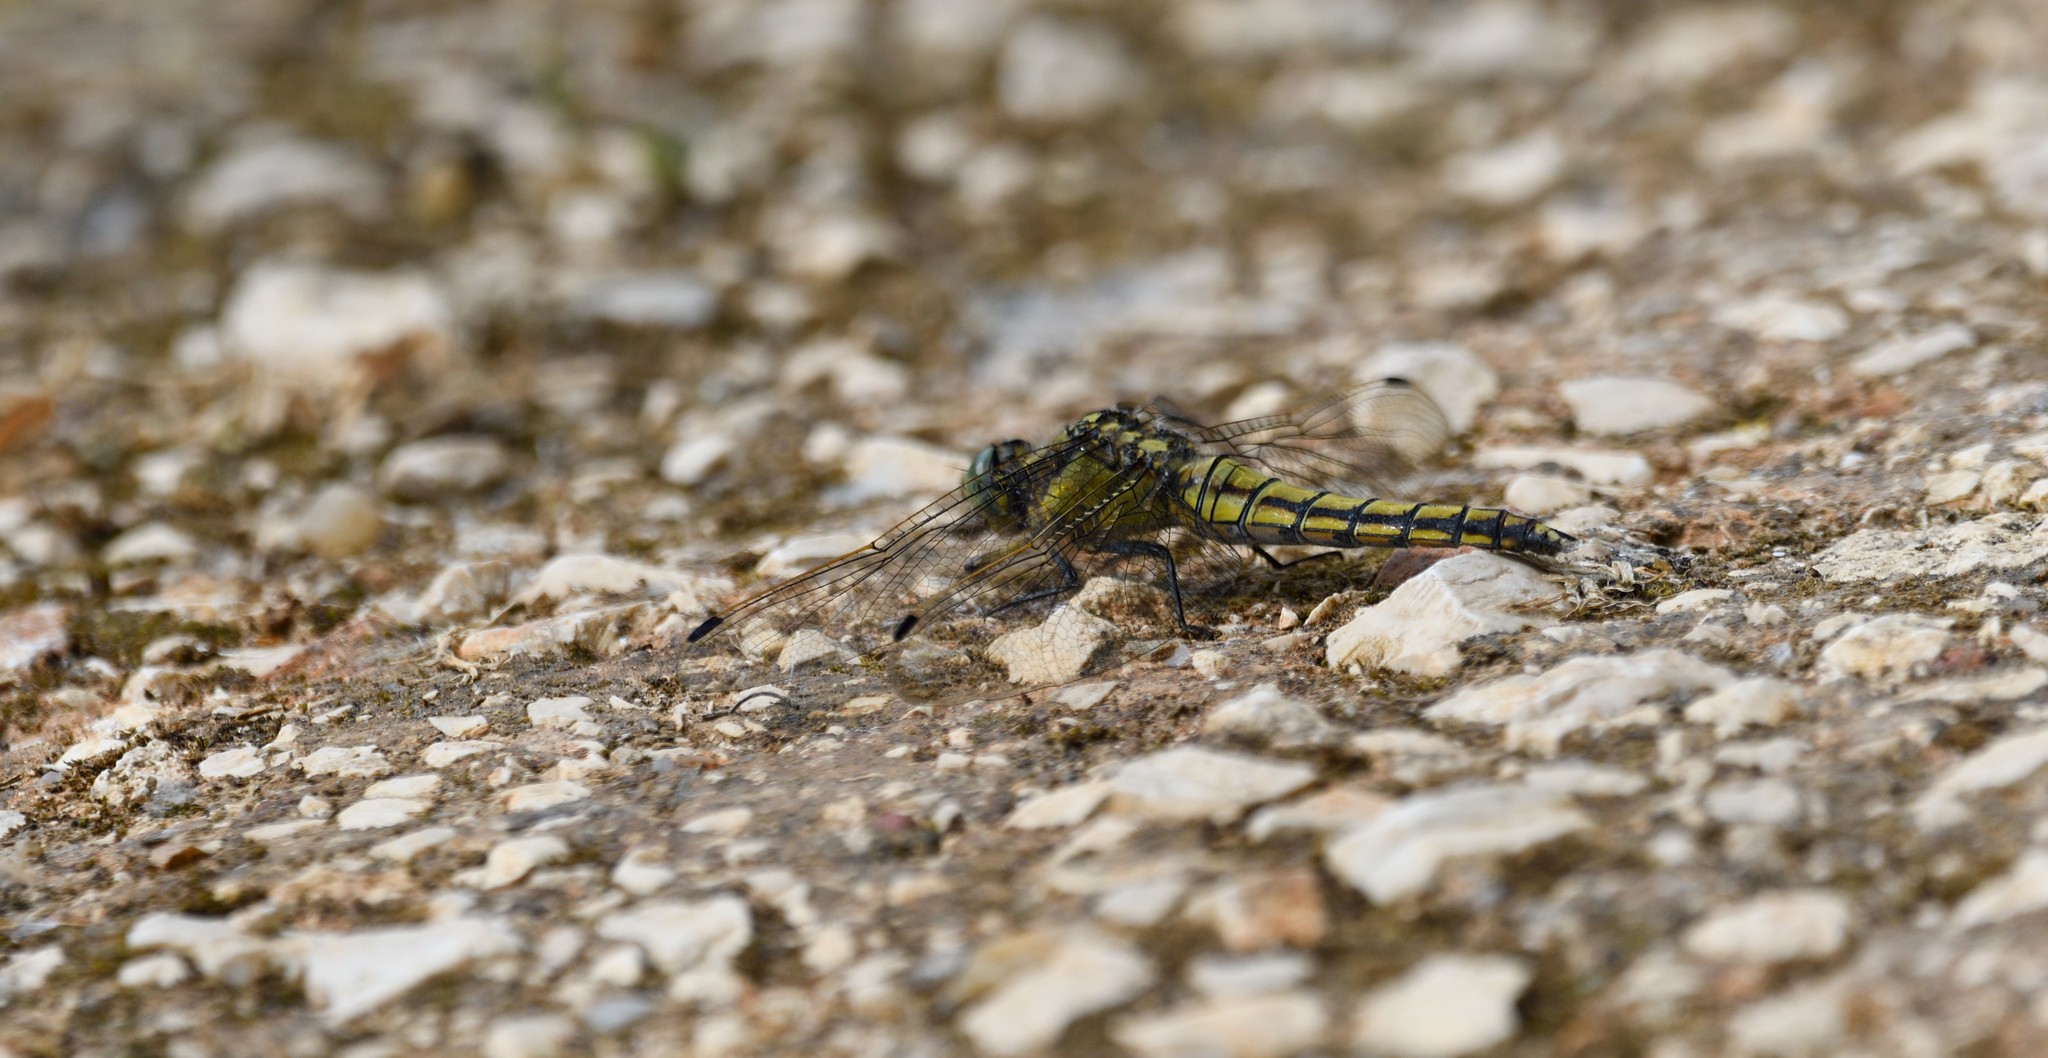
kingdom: Animalia
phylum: Arthropoda
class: Insecta
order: Odonata
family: Libellulidae
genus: Orthetrum
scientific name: Orthetrum cancellatum
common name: Black-tailed skimmer
